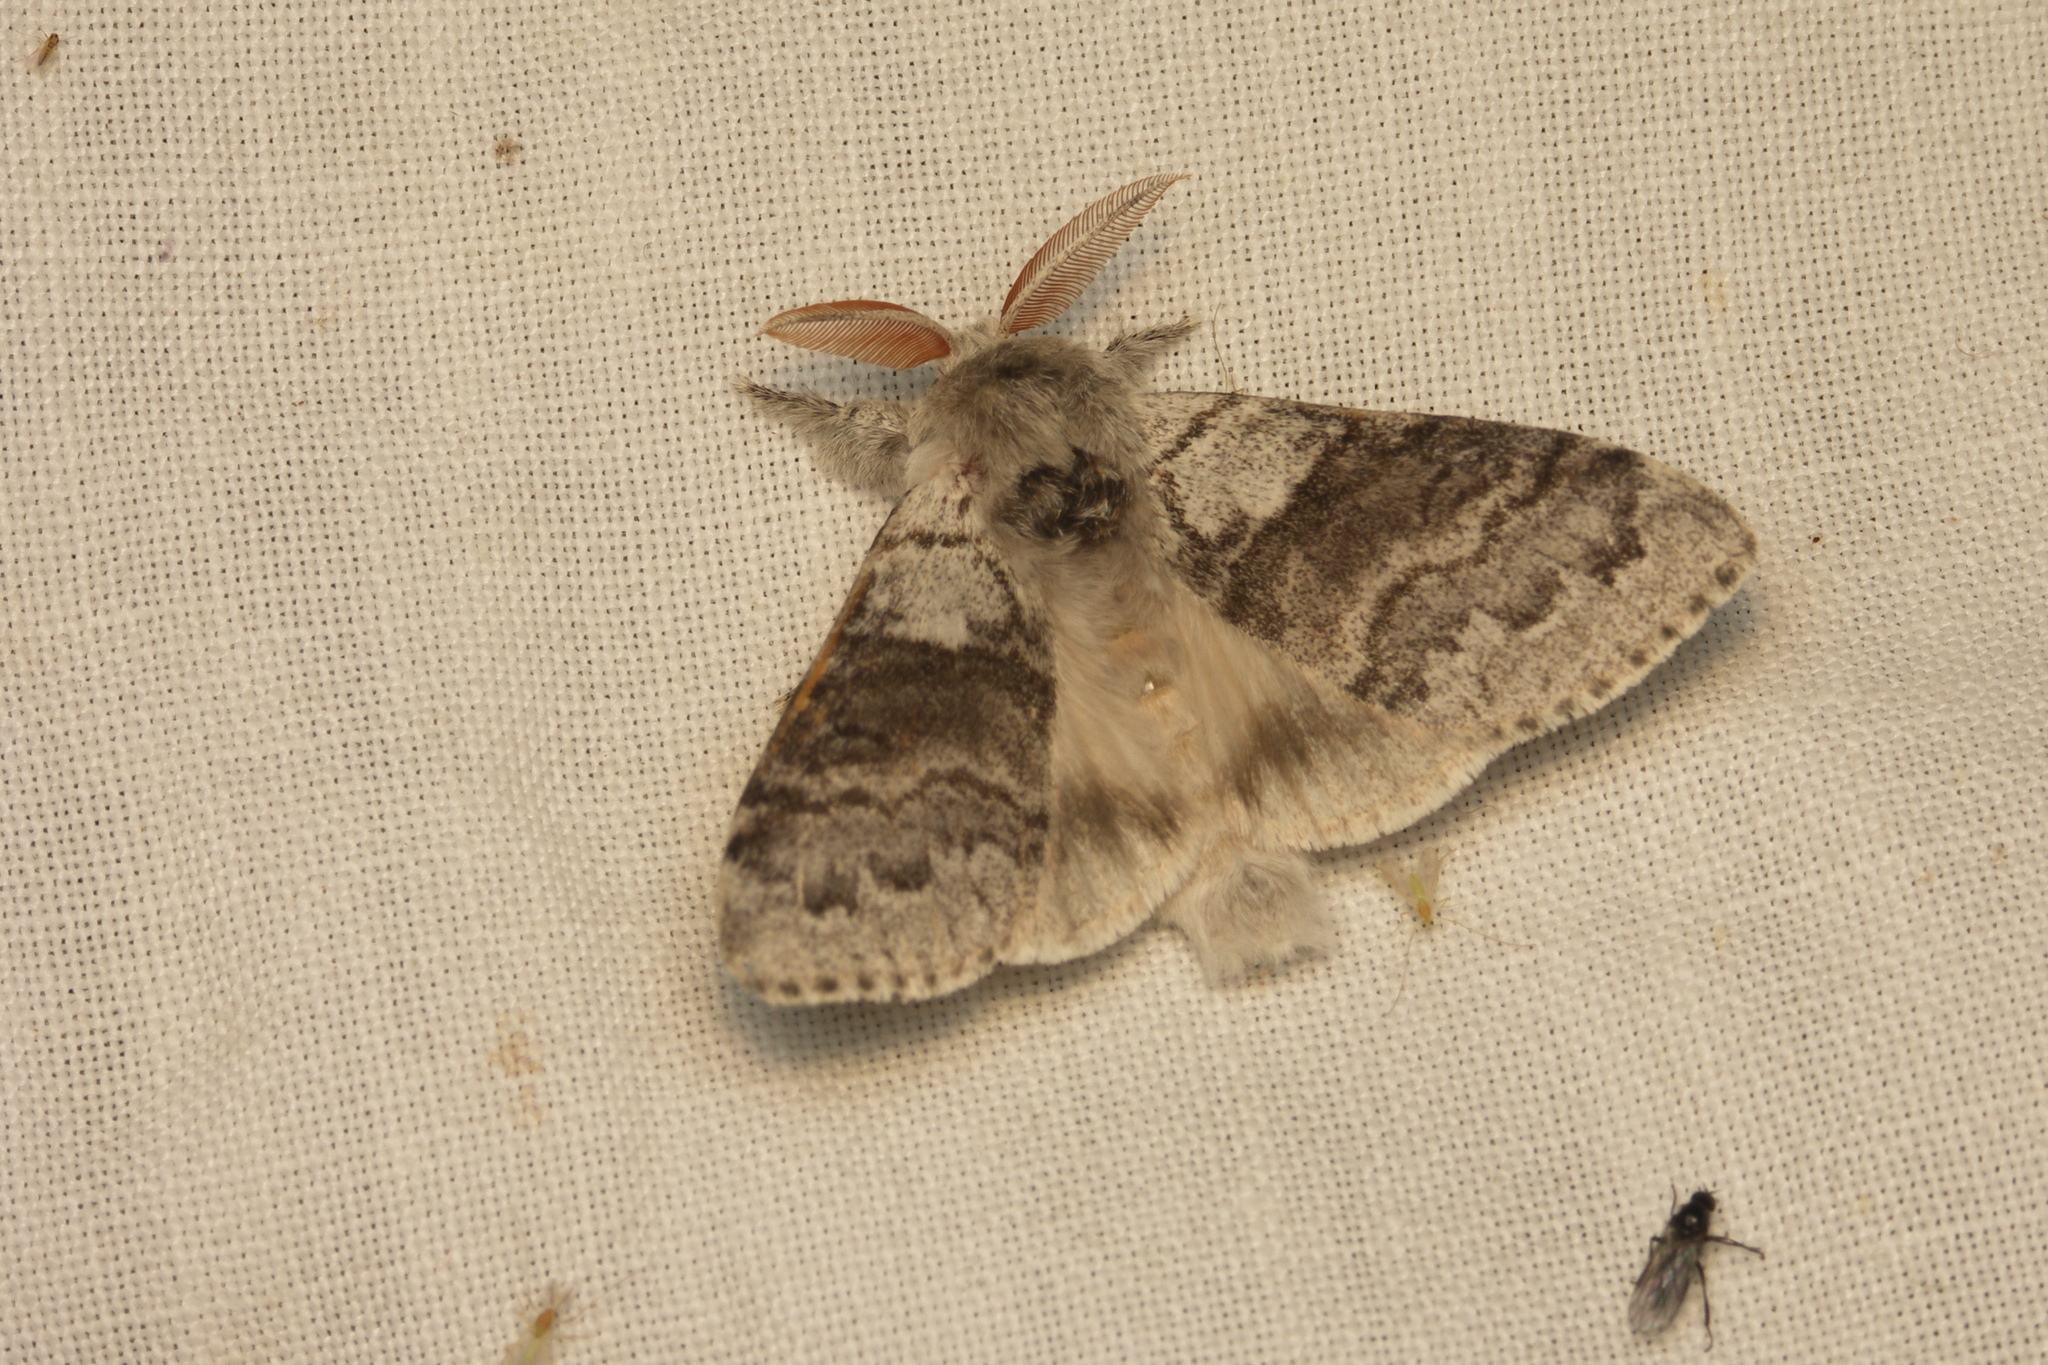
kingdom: Animalia
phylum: Arthropoda
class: Insecta
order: Lepidoptera
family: Erebidae
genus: Calliteara
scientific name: Calliteara pudibunda
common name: Pale tussock
